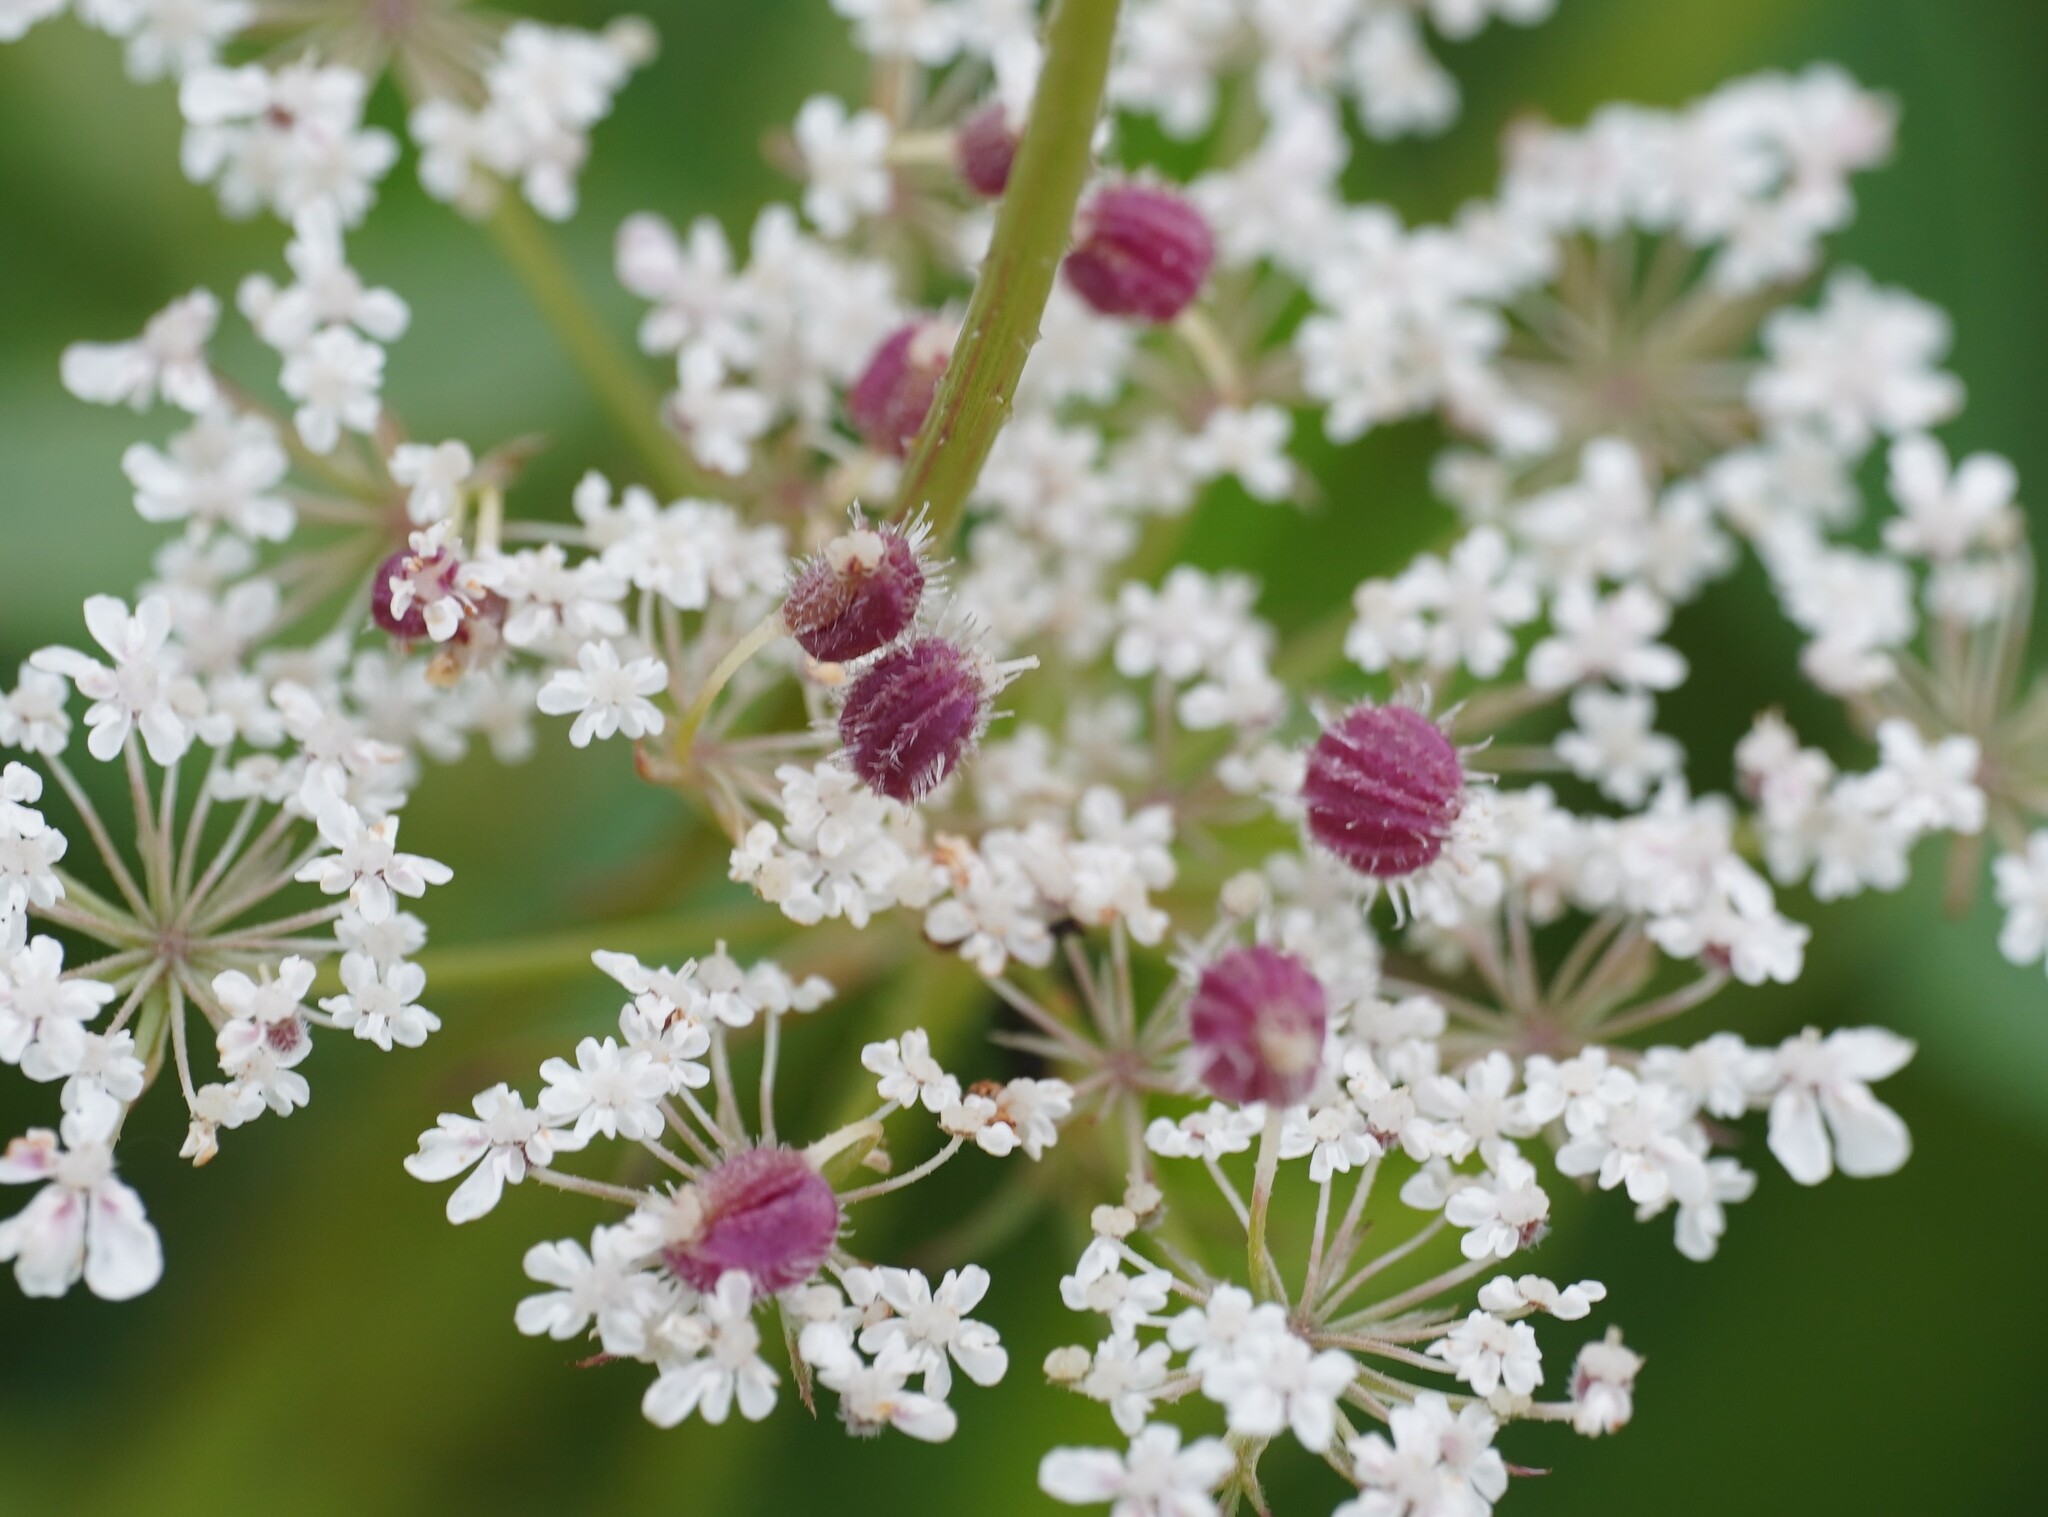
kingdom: Animalia
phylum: Arthropoda
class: Insecta
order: Diptera
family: Cecidomyiidae
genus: Kiefferia
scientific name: Kiefferia pericarpiicola
